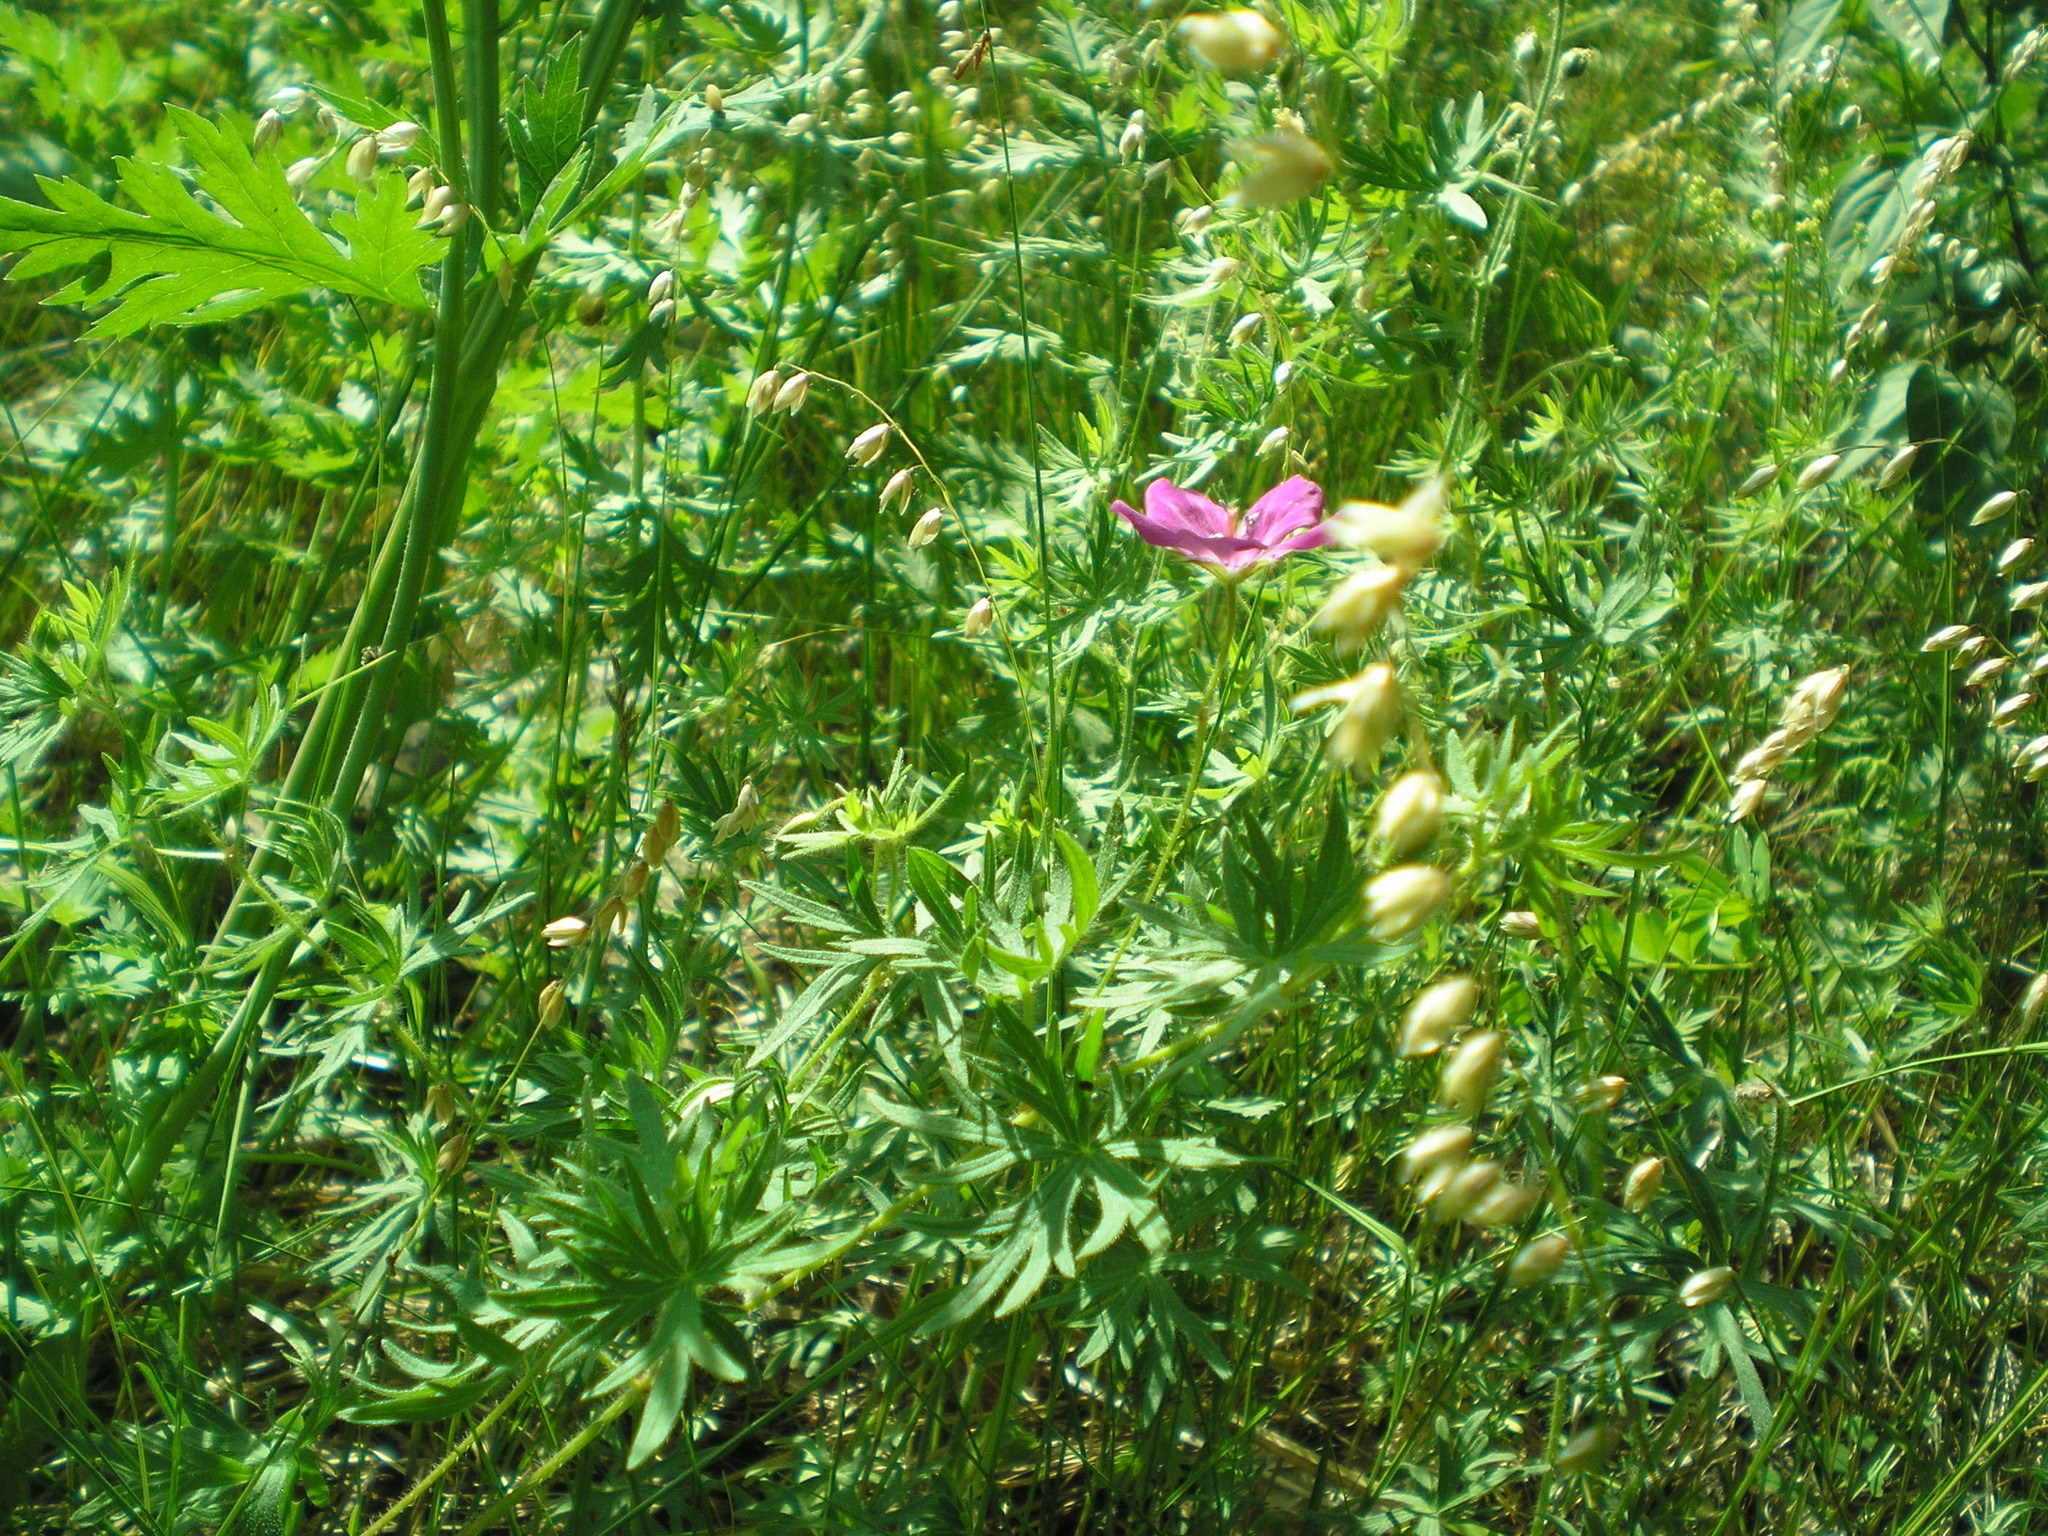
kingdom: Plantae
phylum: Tracheophyta
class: Magnoliopsida
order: Geraniales
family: Geraniaceae
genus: Geranium
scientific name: Geranium sanguineum
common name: Bloody crane's-bill
